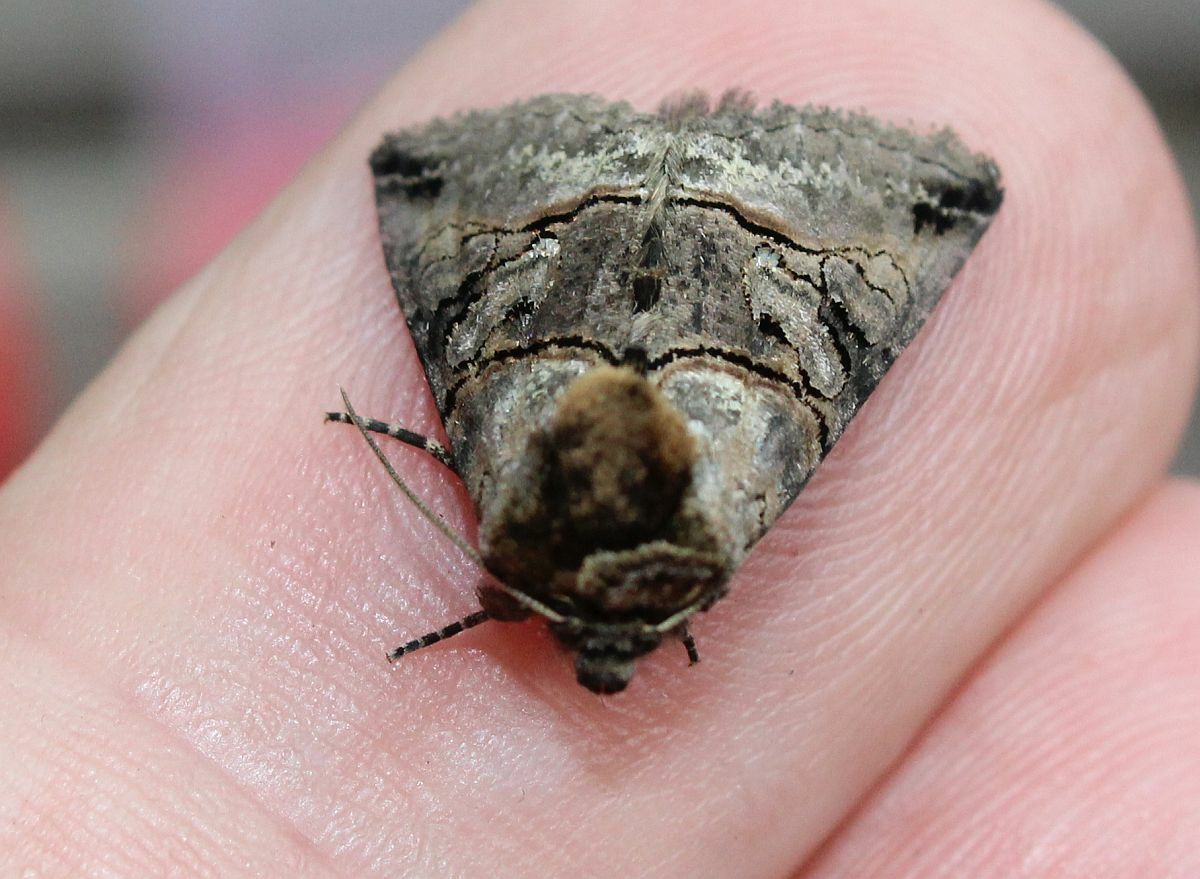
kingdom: Animalia
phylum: Arthropoda
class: Insecta
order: Lepidoptera
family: Noctuidae
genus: Abrostola
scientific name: Abrostola tripartita
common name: Spectacle
